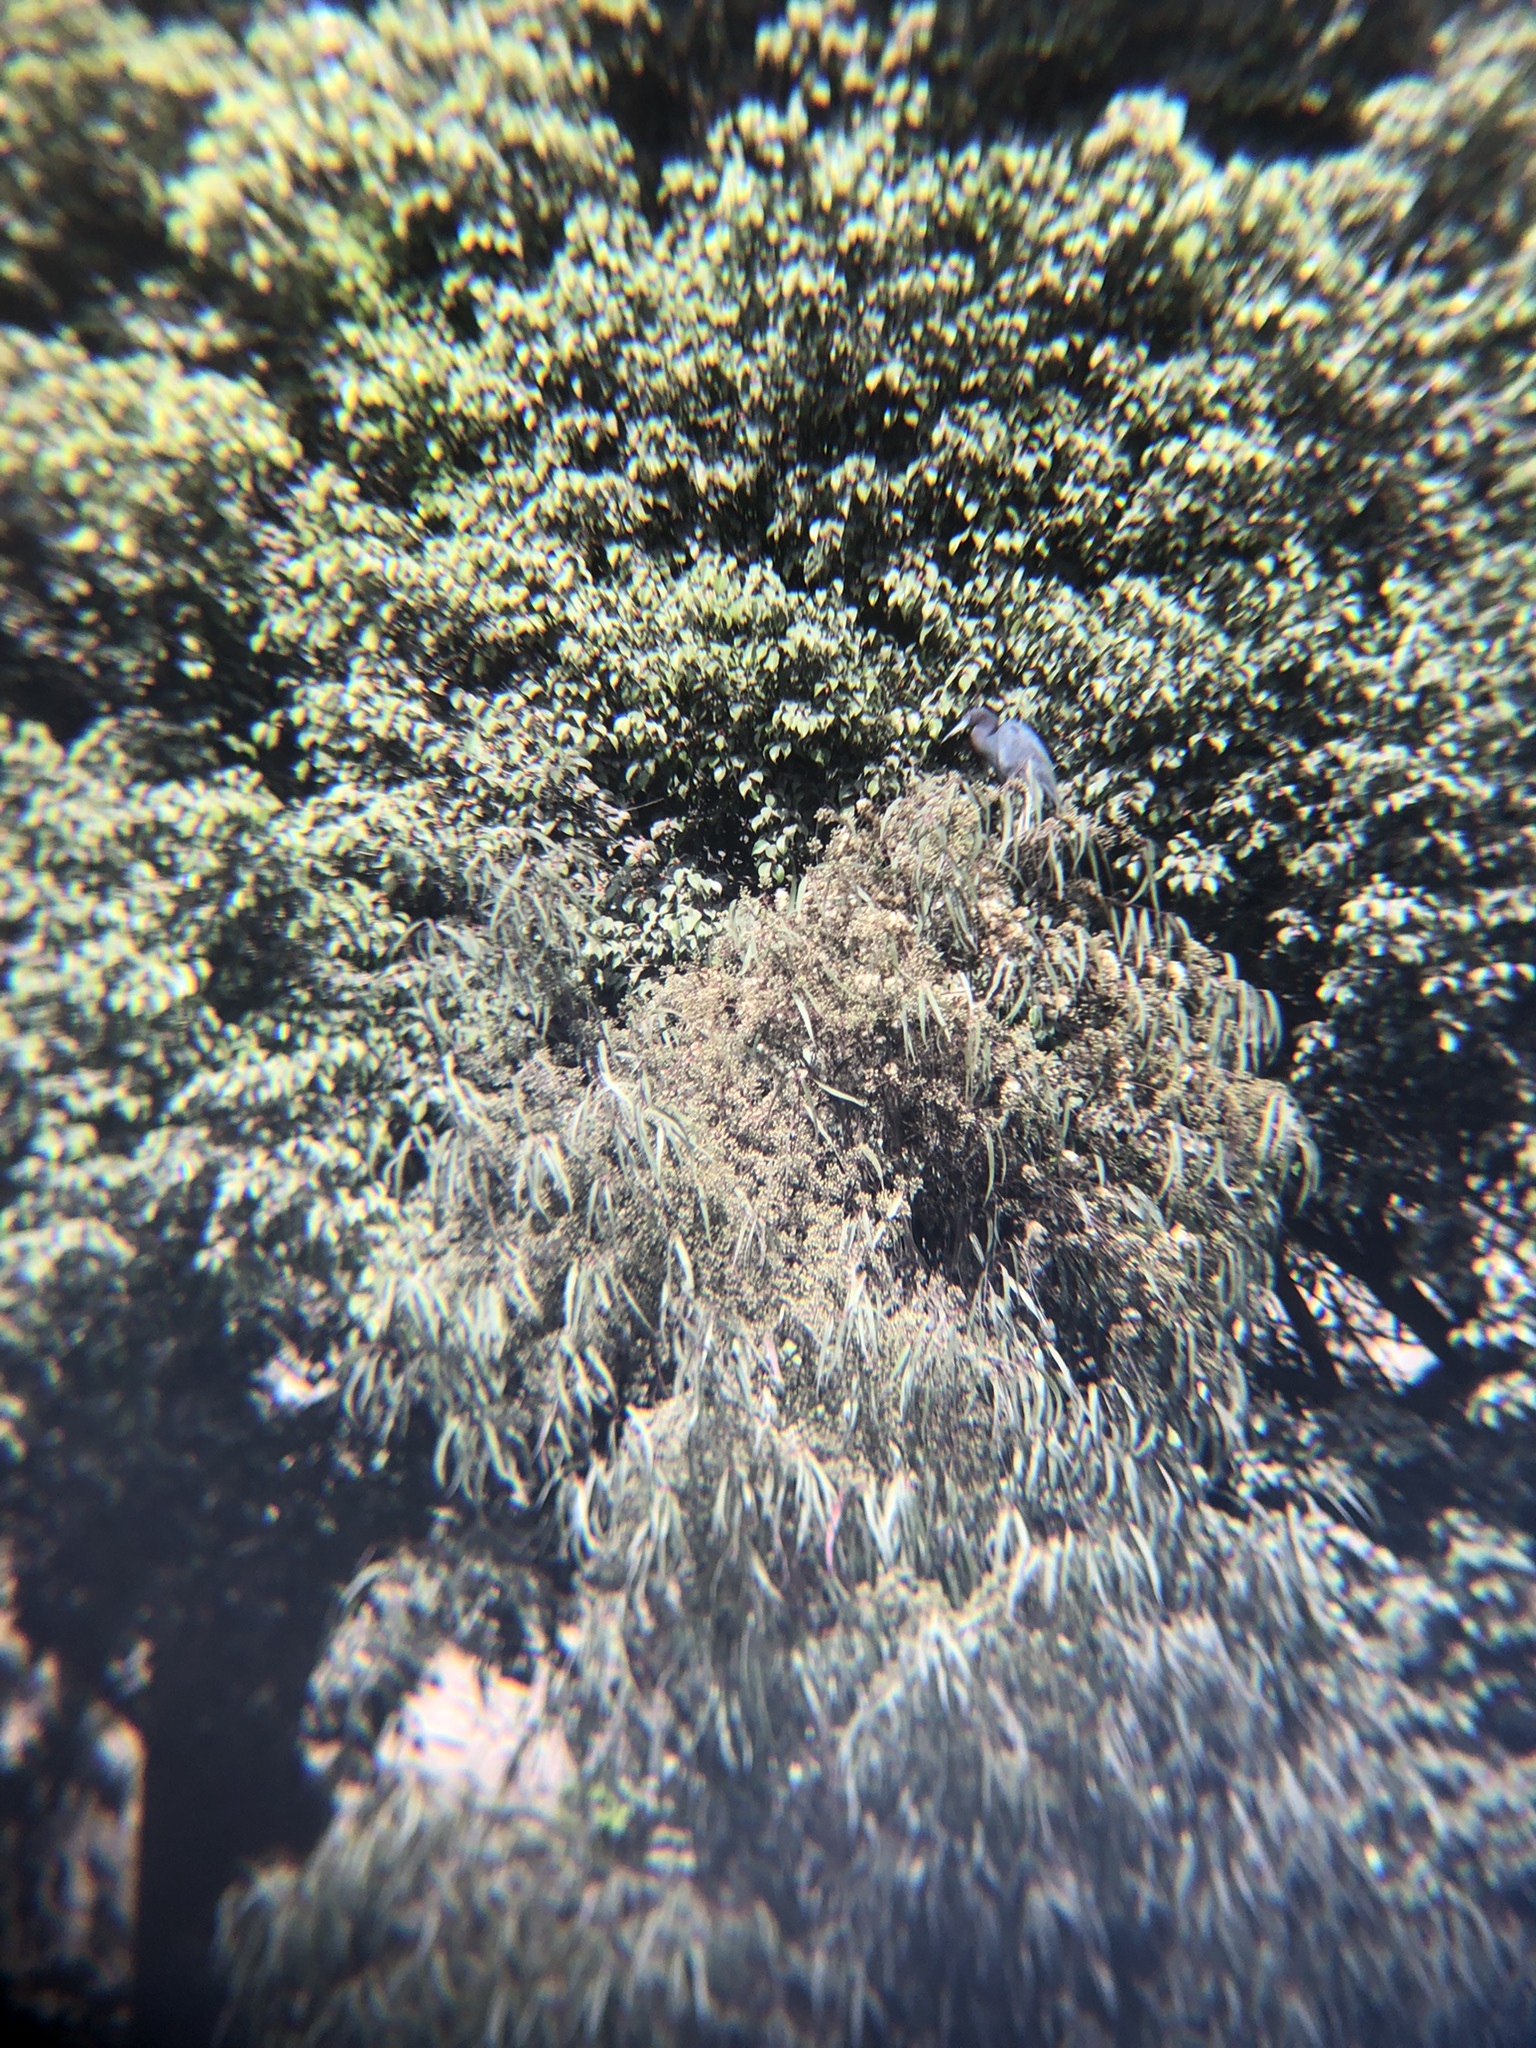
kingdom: Animalia
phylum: Chordata
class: Aves
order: Pelecaniformes
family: Ardeidae
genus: Egretta
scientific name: Egretta caerulea
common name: Little blue heron
